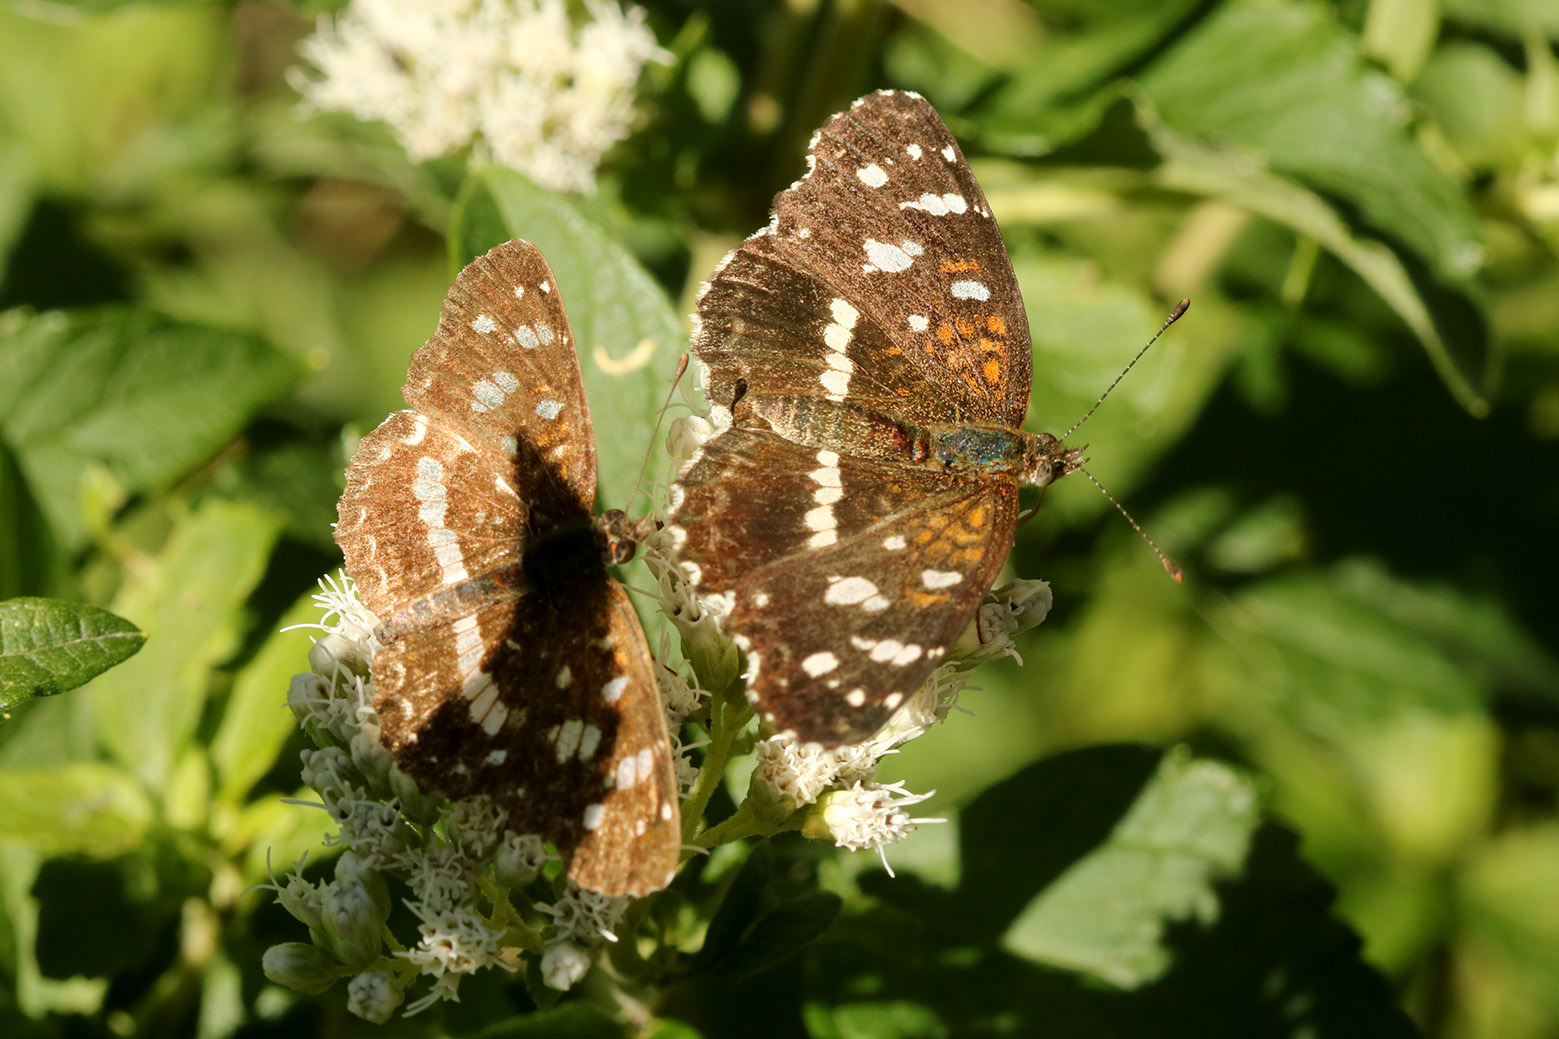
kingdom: Animalia
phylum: Arthropoda
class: Insecta
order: Lepidoptera
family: Nymphalidae
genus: Ortilia
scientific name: Ortilia ithra
